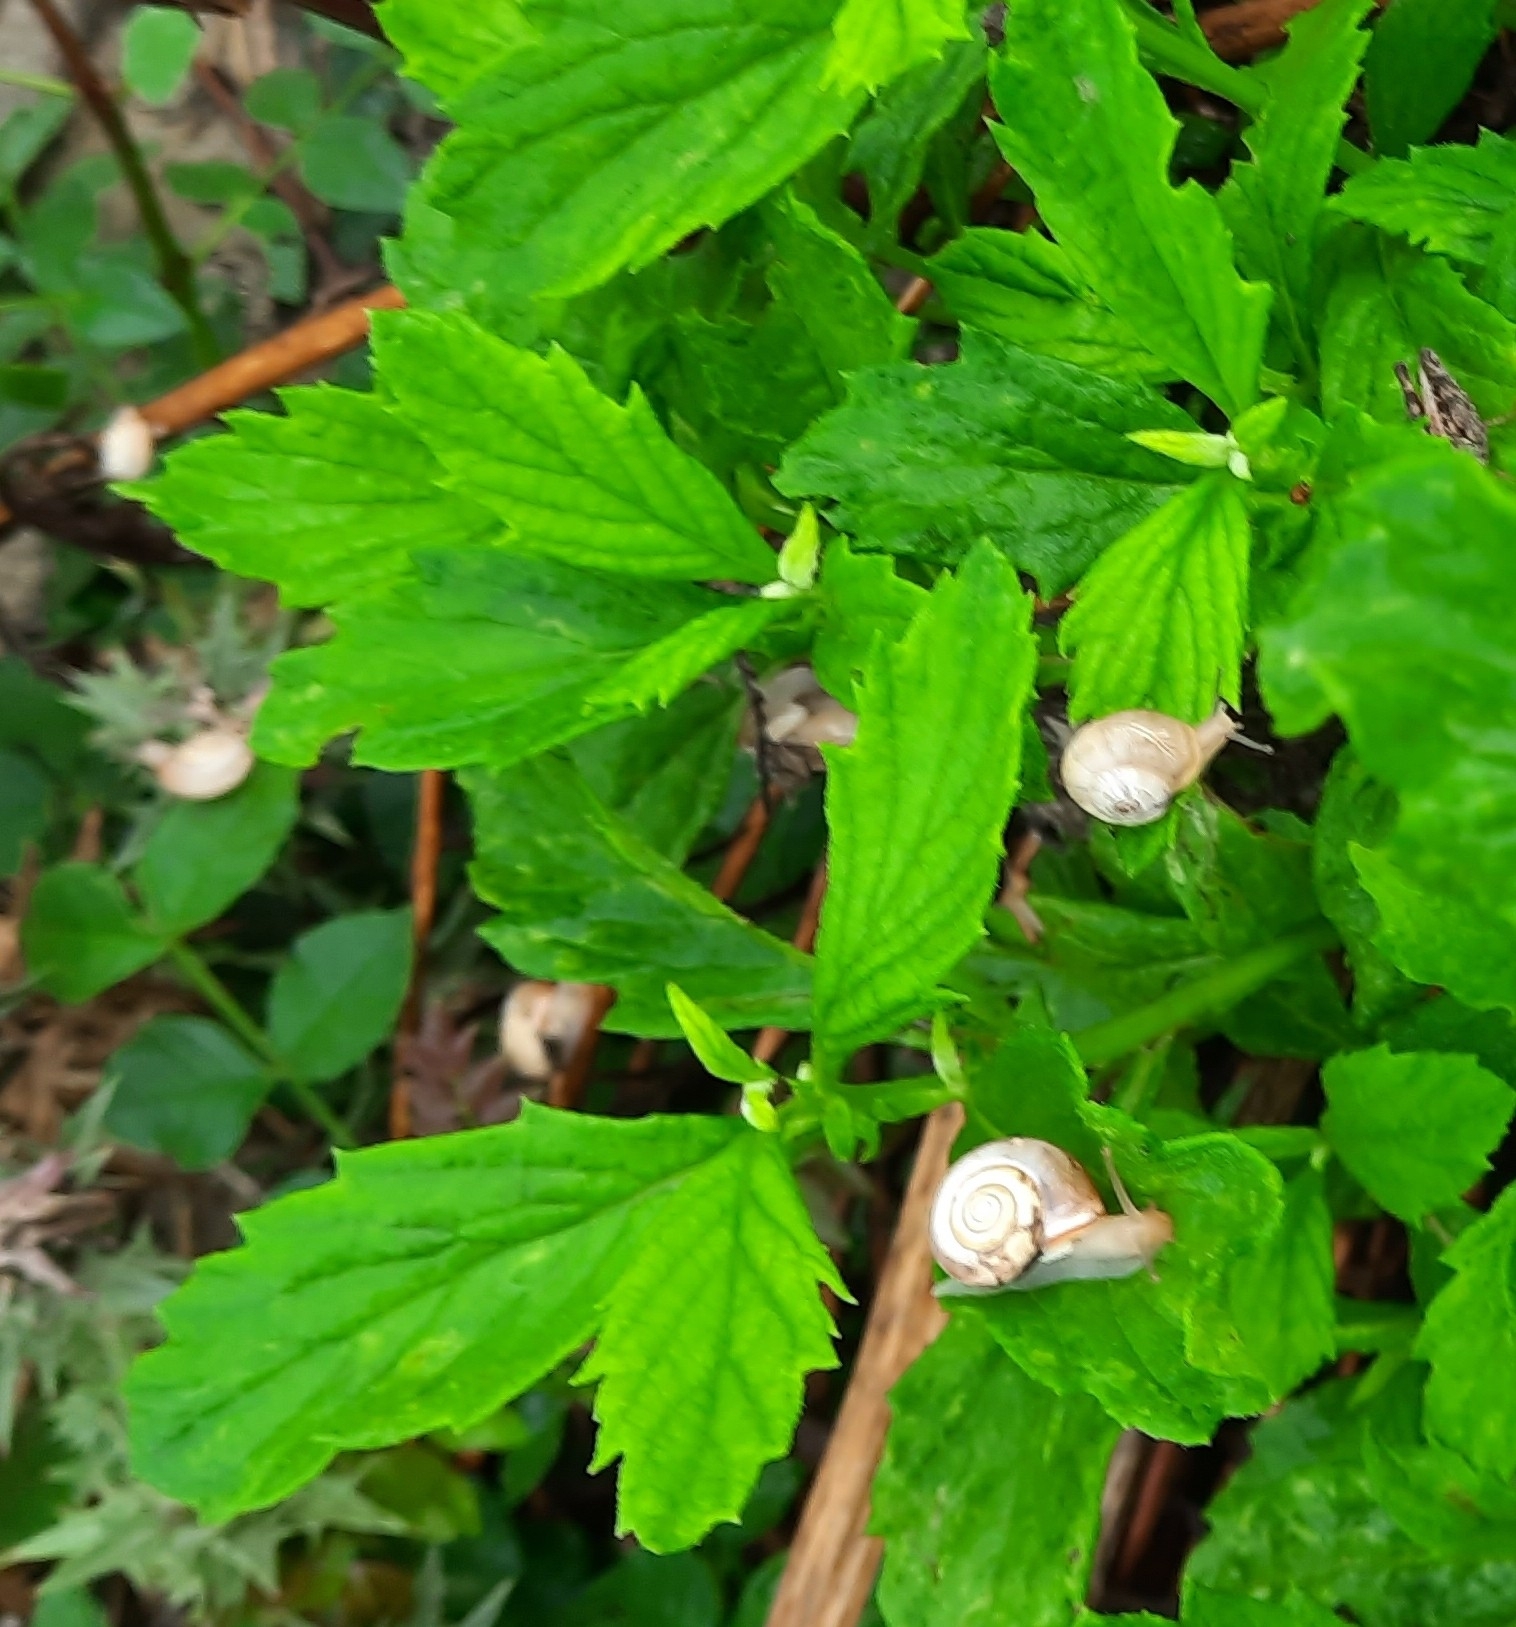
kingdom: Animalia
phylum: Mollusca
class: Gastropoda
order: Stylommatophora
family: Hygromiidae
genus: Monacha
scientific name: Monacha cartusiana
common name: Carthusian snail
